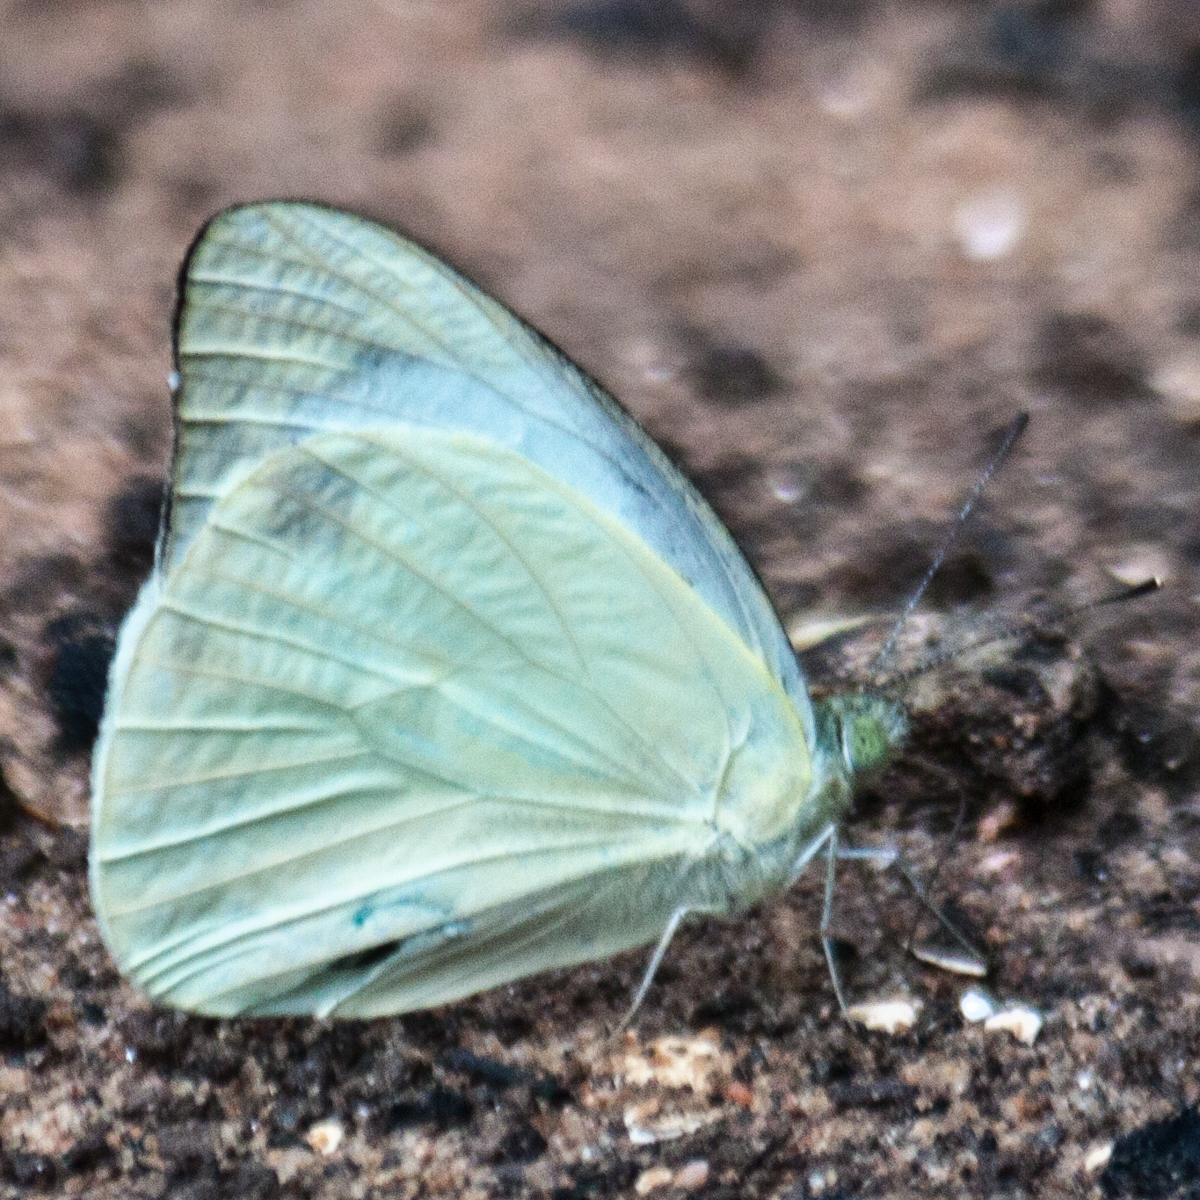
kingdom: Animalia
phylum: Arthropoda
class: Insecta
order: Lepidoptera
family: Pieridae
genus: Appias
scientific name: Appias paulina
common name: Ceylon lesser albatross
